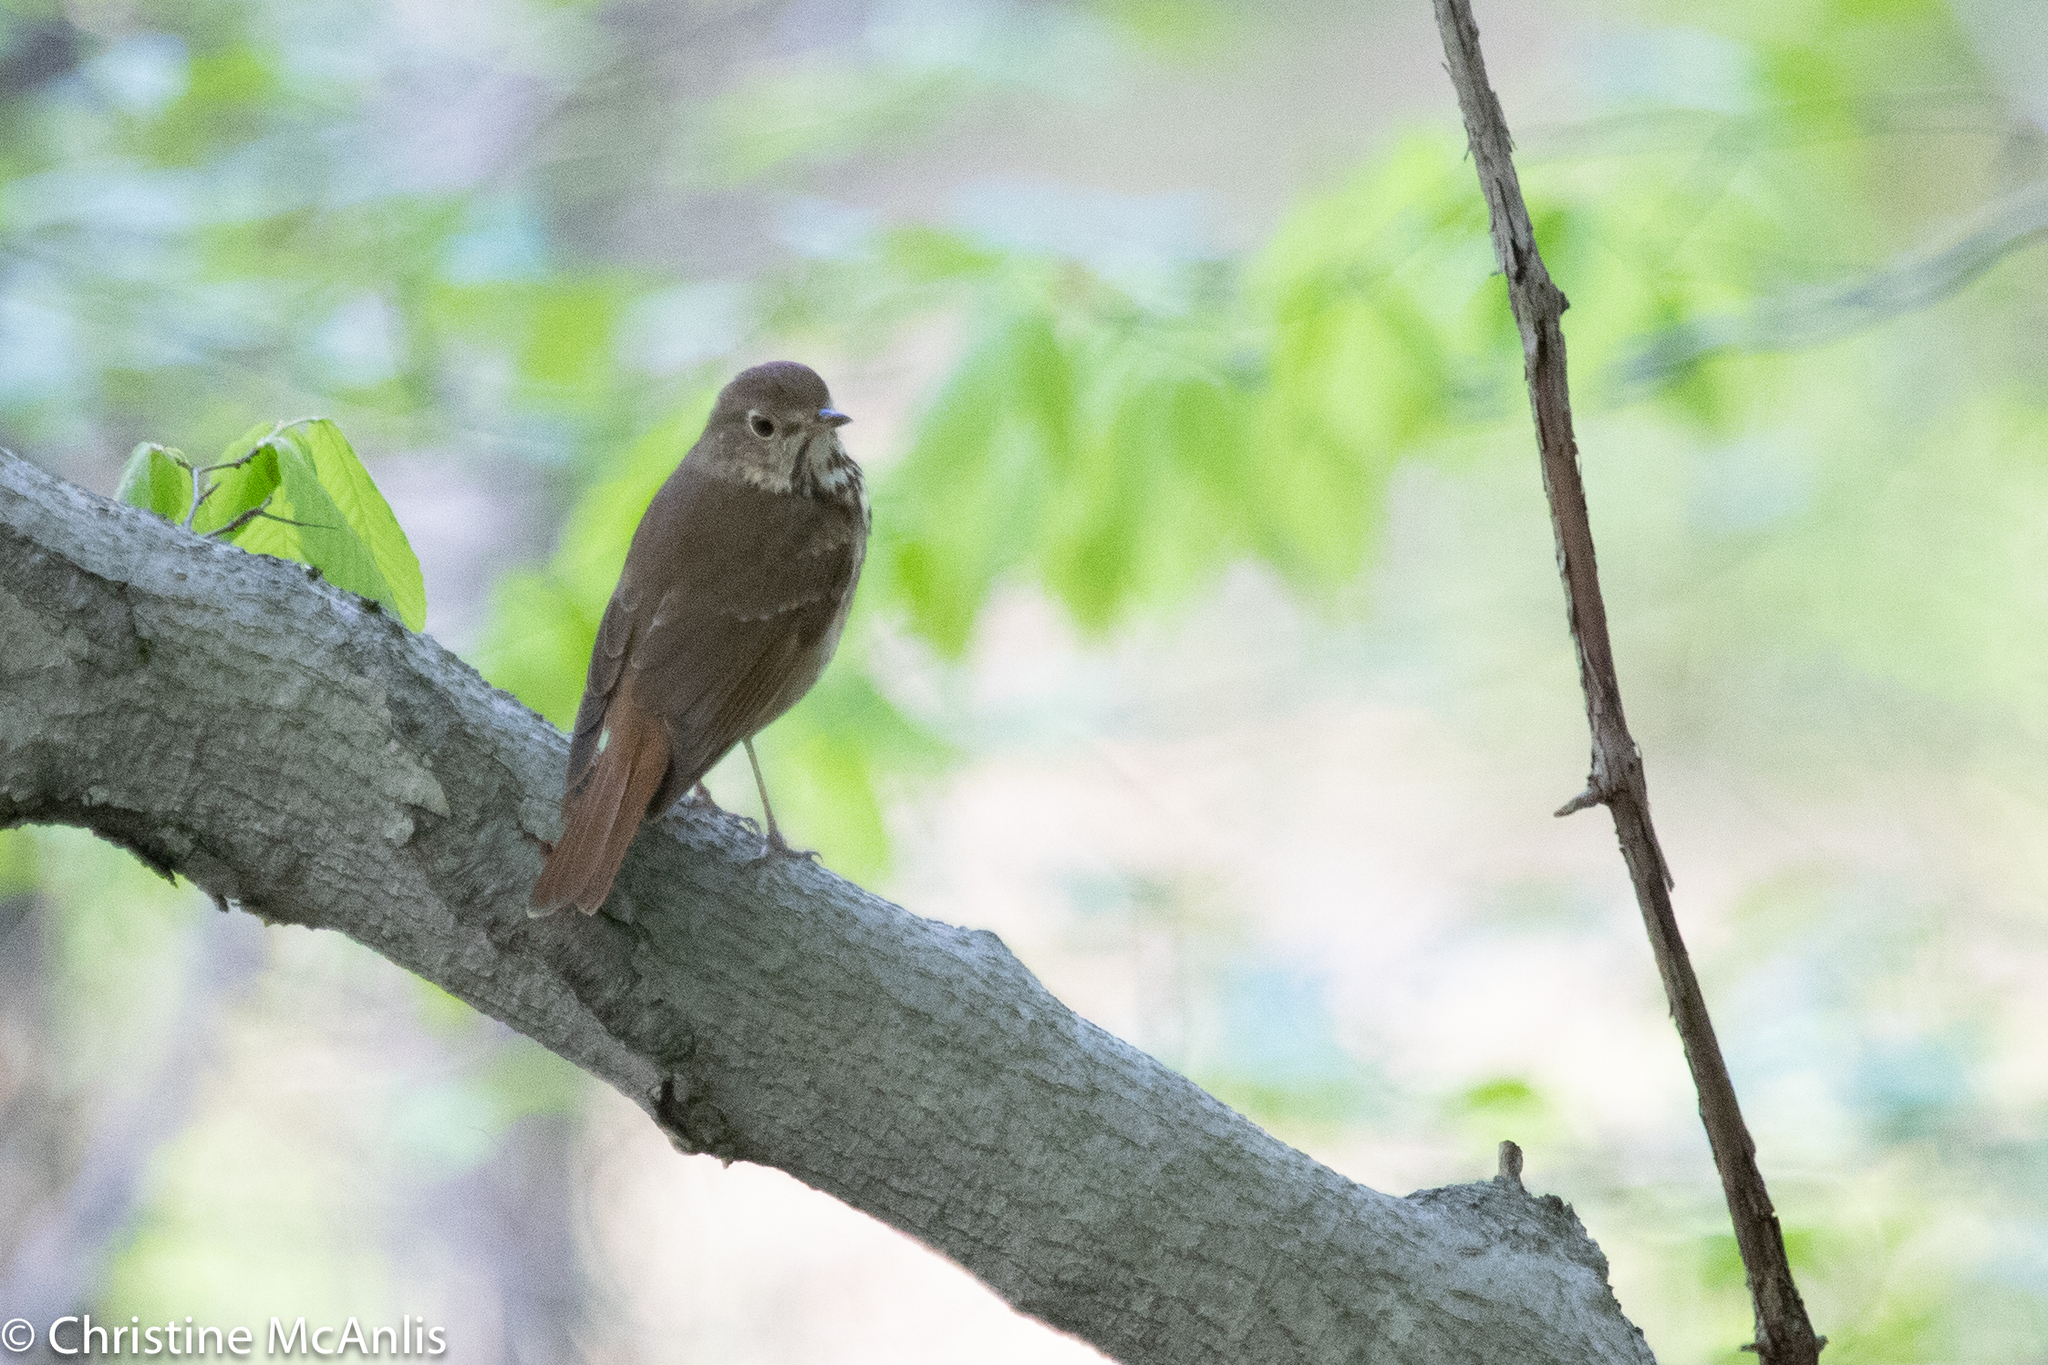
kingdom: Animalia
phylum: Chordata
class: Aves
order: Passeriformes
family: Turdidae
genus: Catharus
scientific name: Catharus guttatus
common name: Hermit thrush
